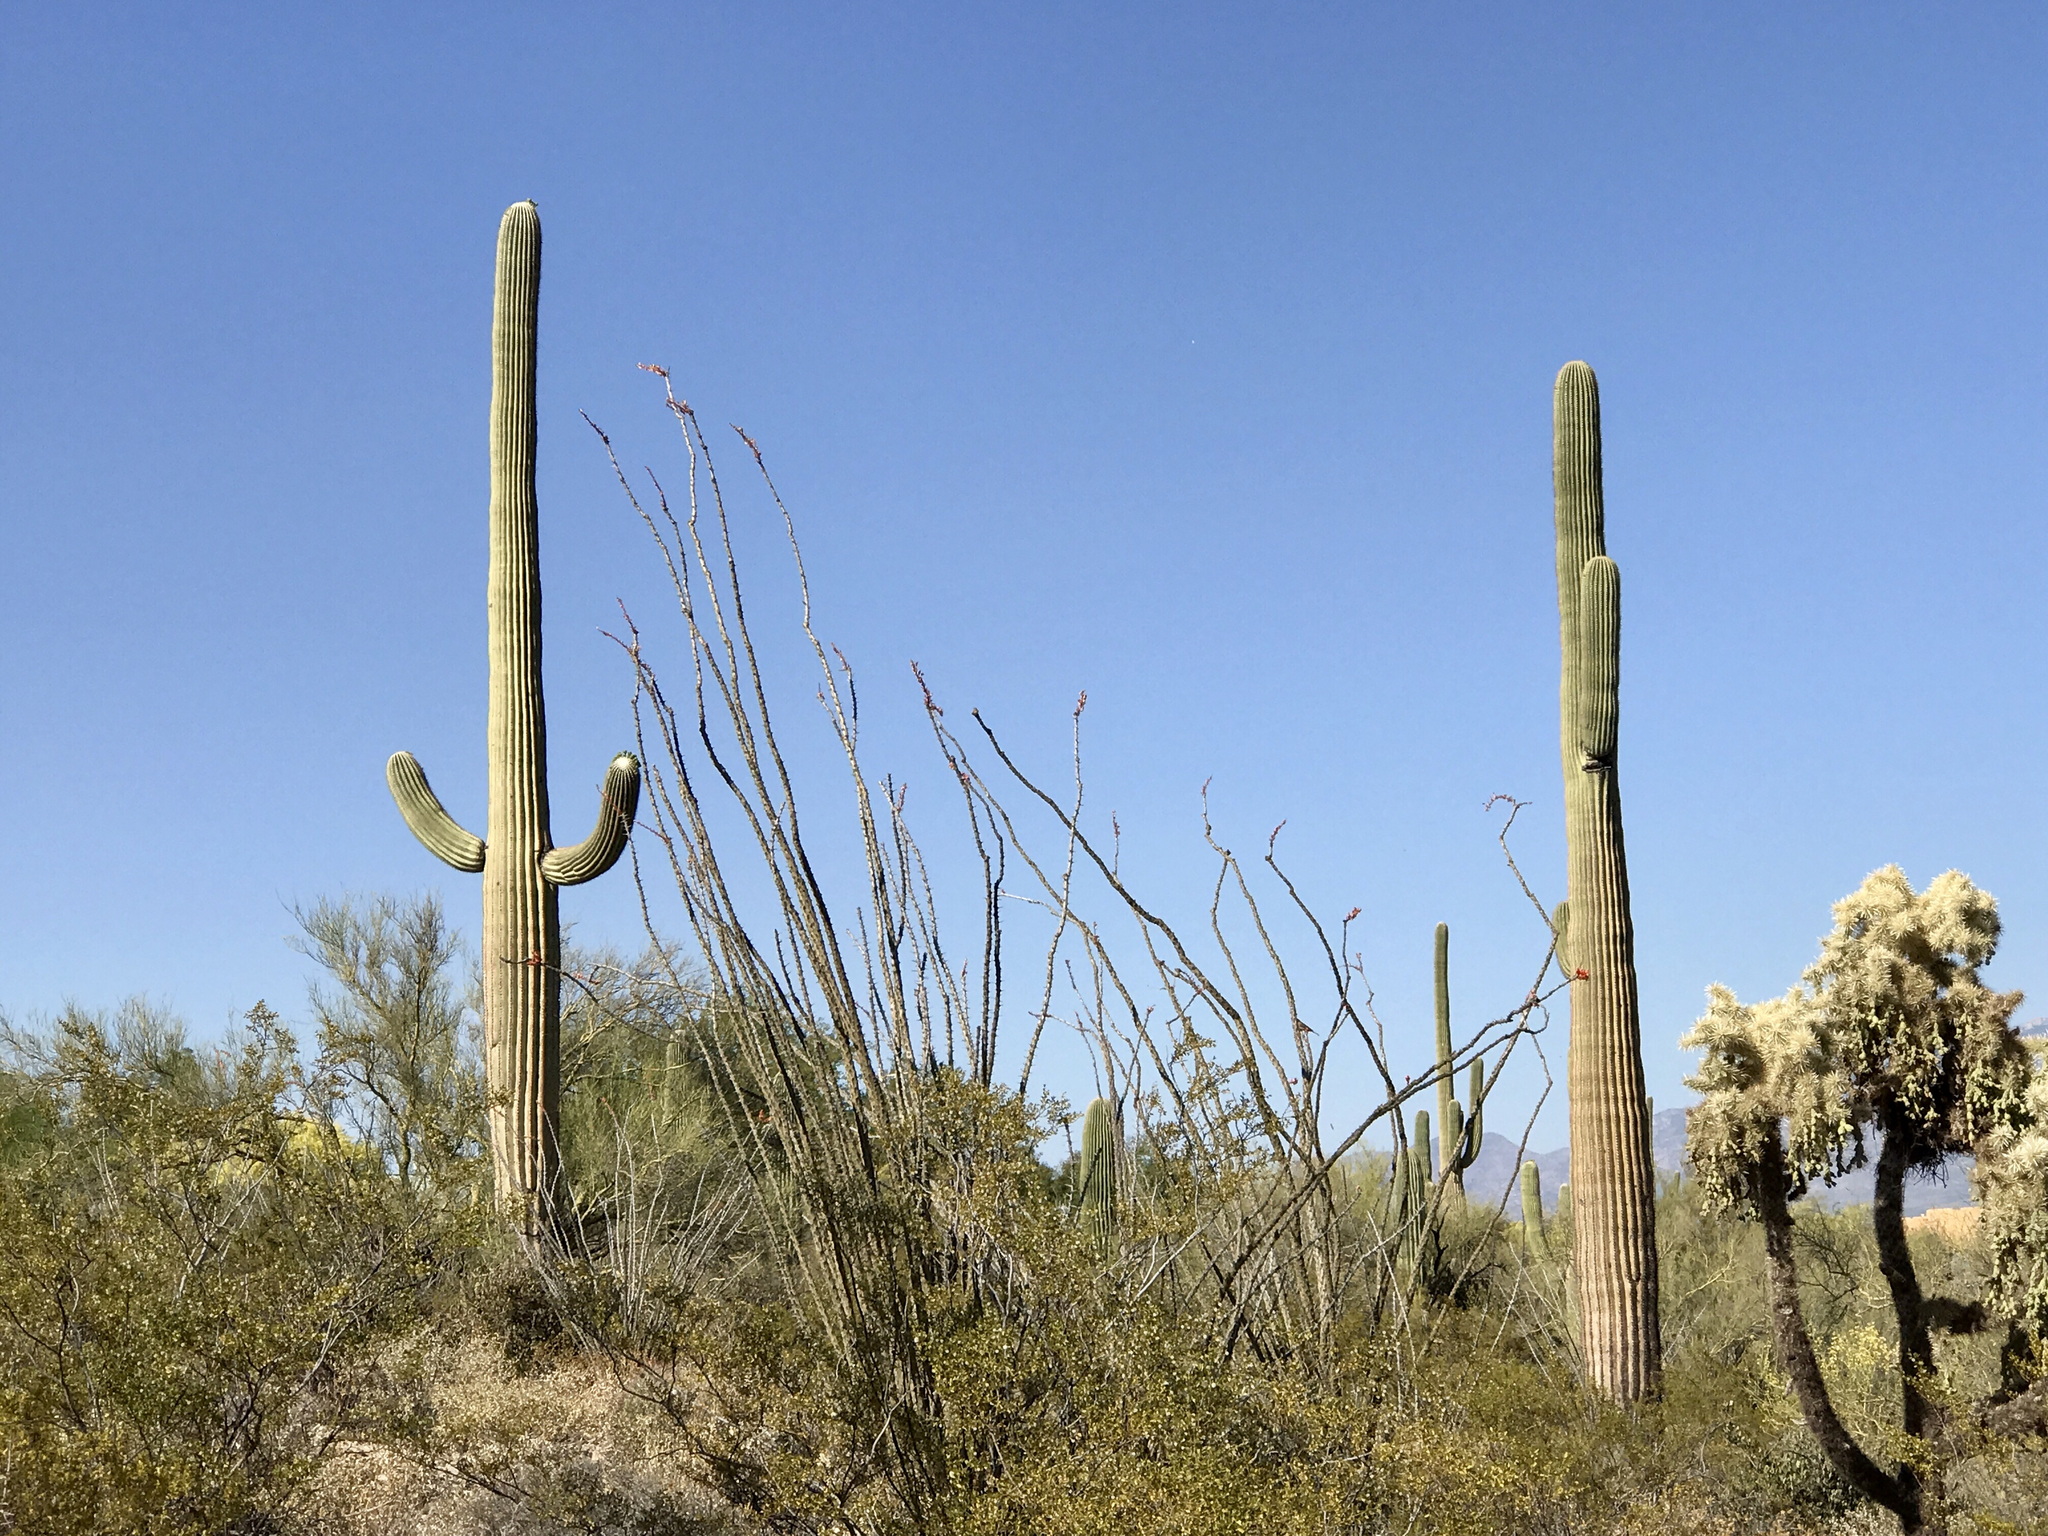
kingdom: Plantae
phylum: Tracheophyta
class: Magnoliopsida
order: Caryophyllales
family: Cactaceae
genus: Carnegiea
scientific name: Carnegiea gigantea
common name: Saguaro
